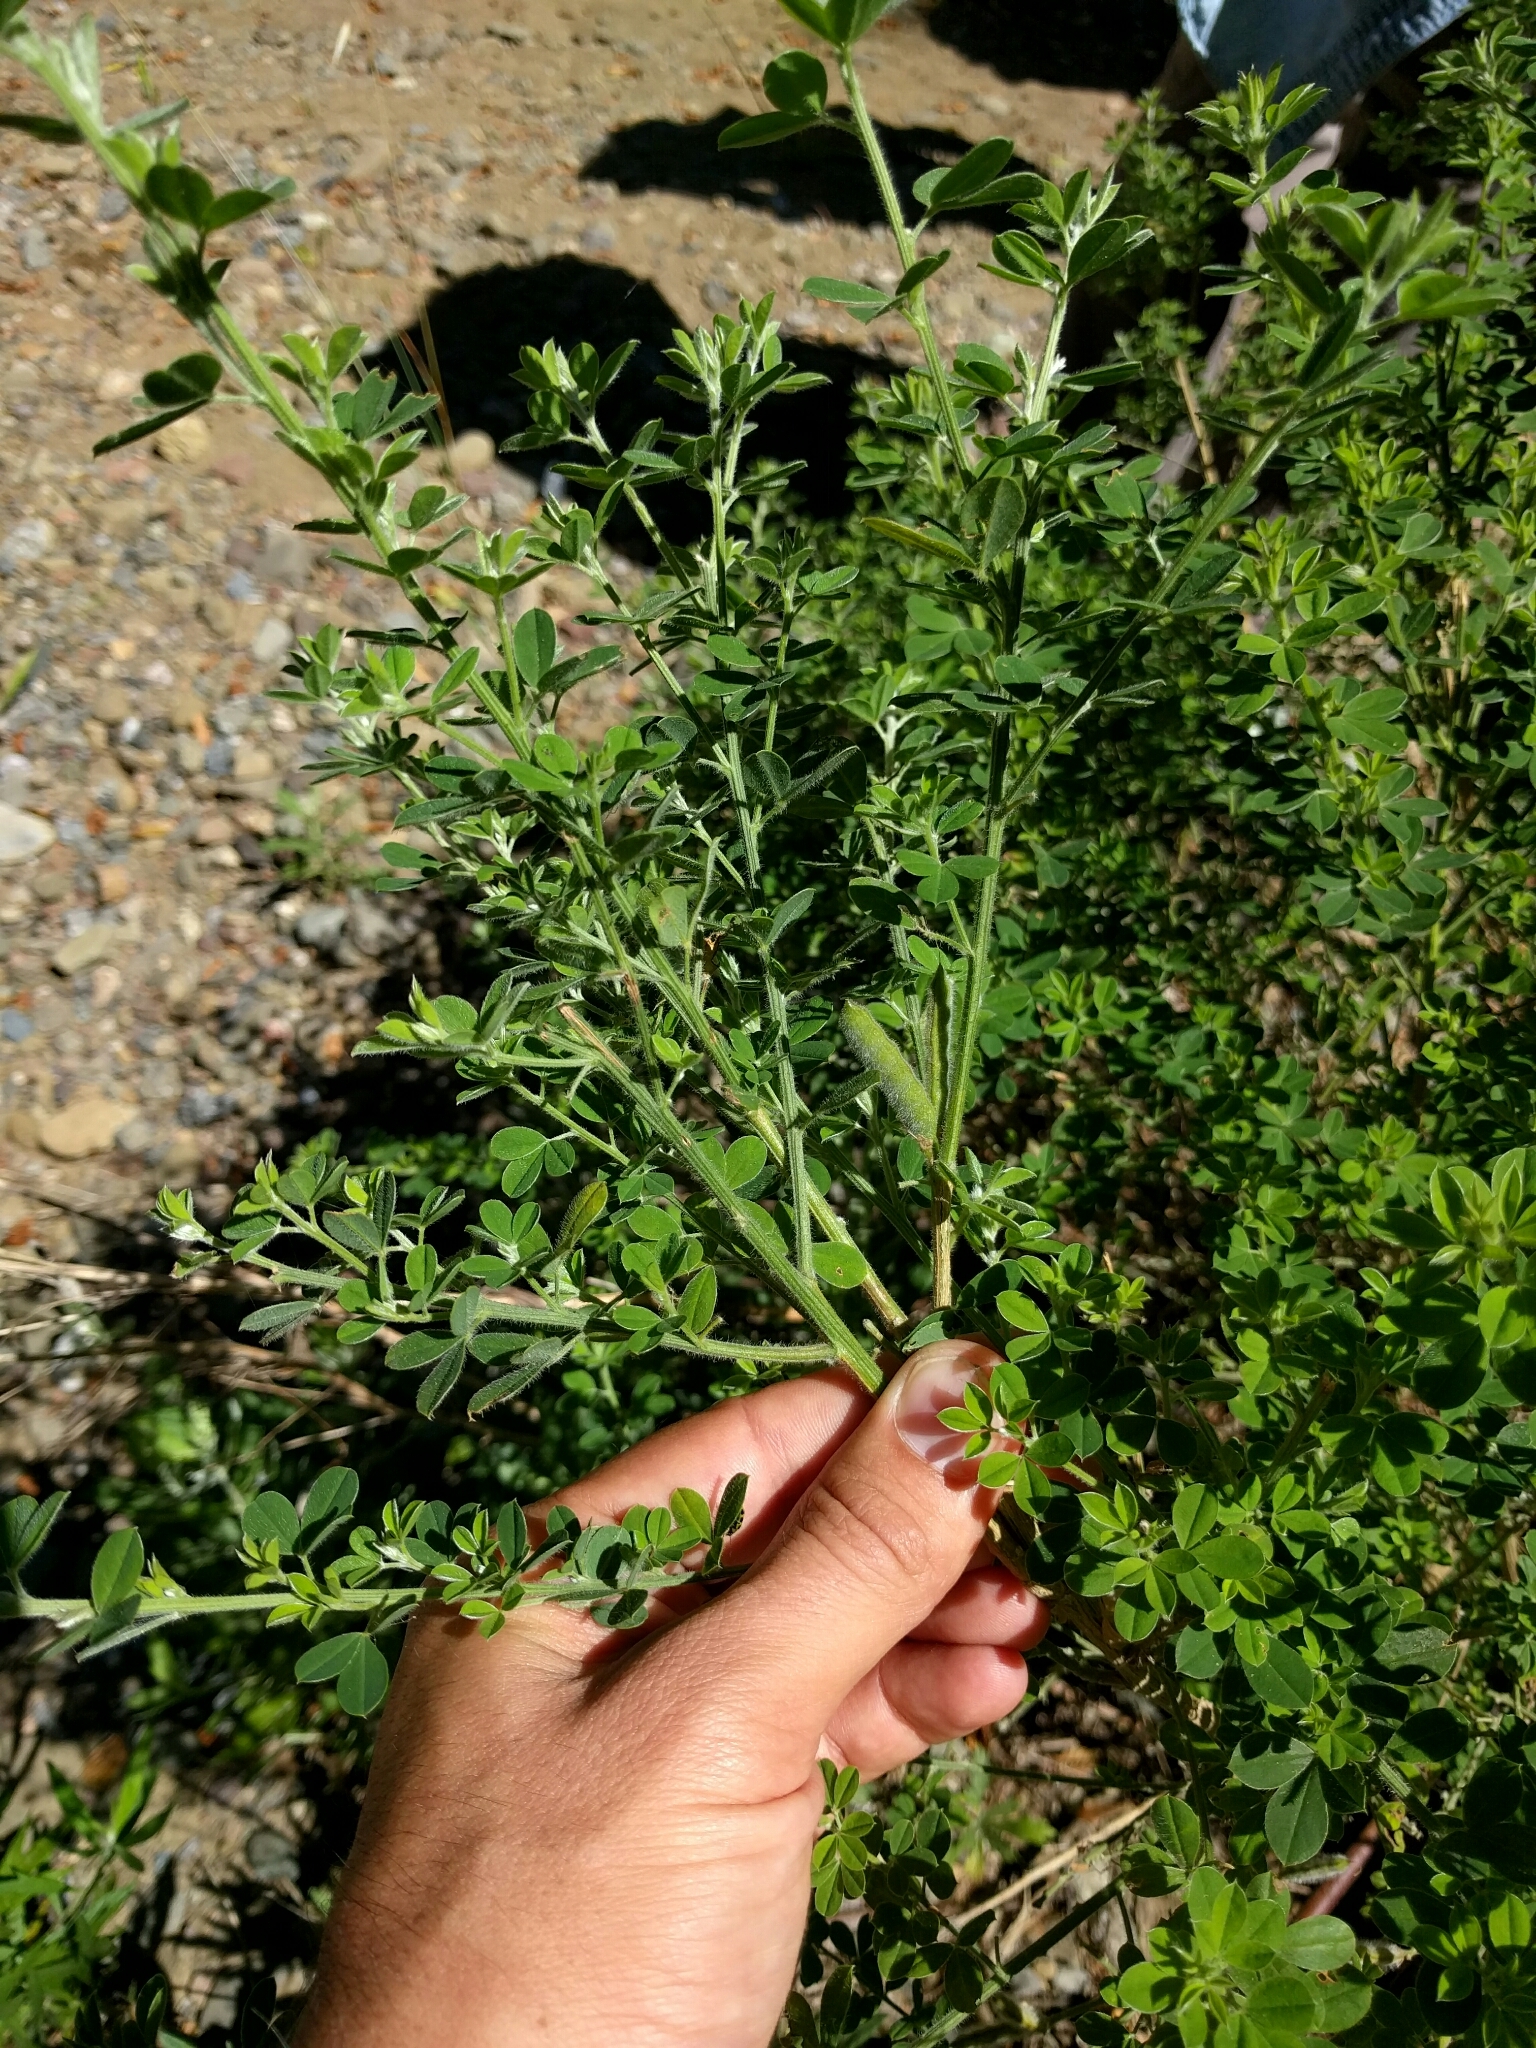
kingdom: Plantae
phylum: Tracheophyta
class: Magnoliopsida
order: Fabales
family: Fabaceae
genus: Genista
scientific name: Genista monspessulana
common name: Montpellier broom
